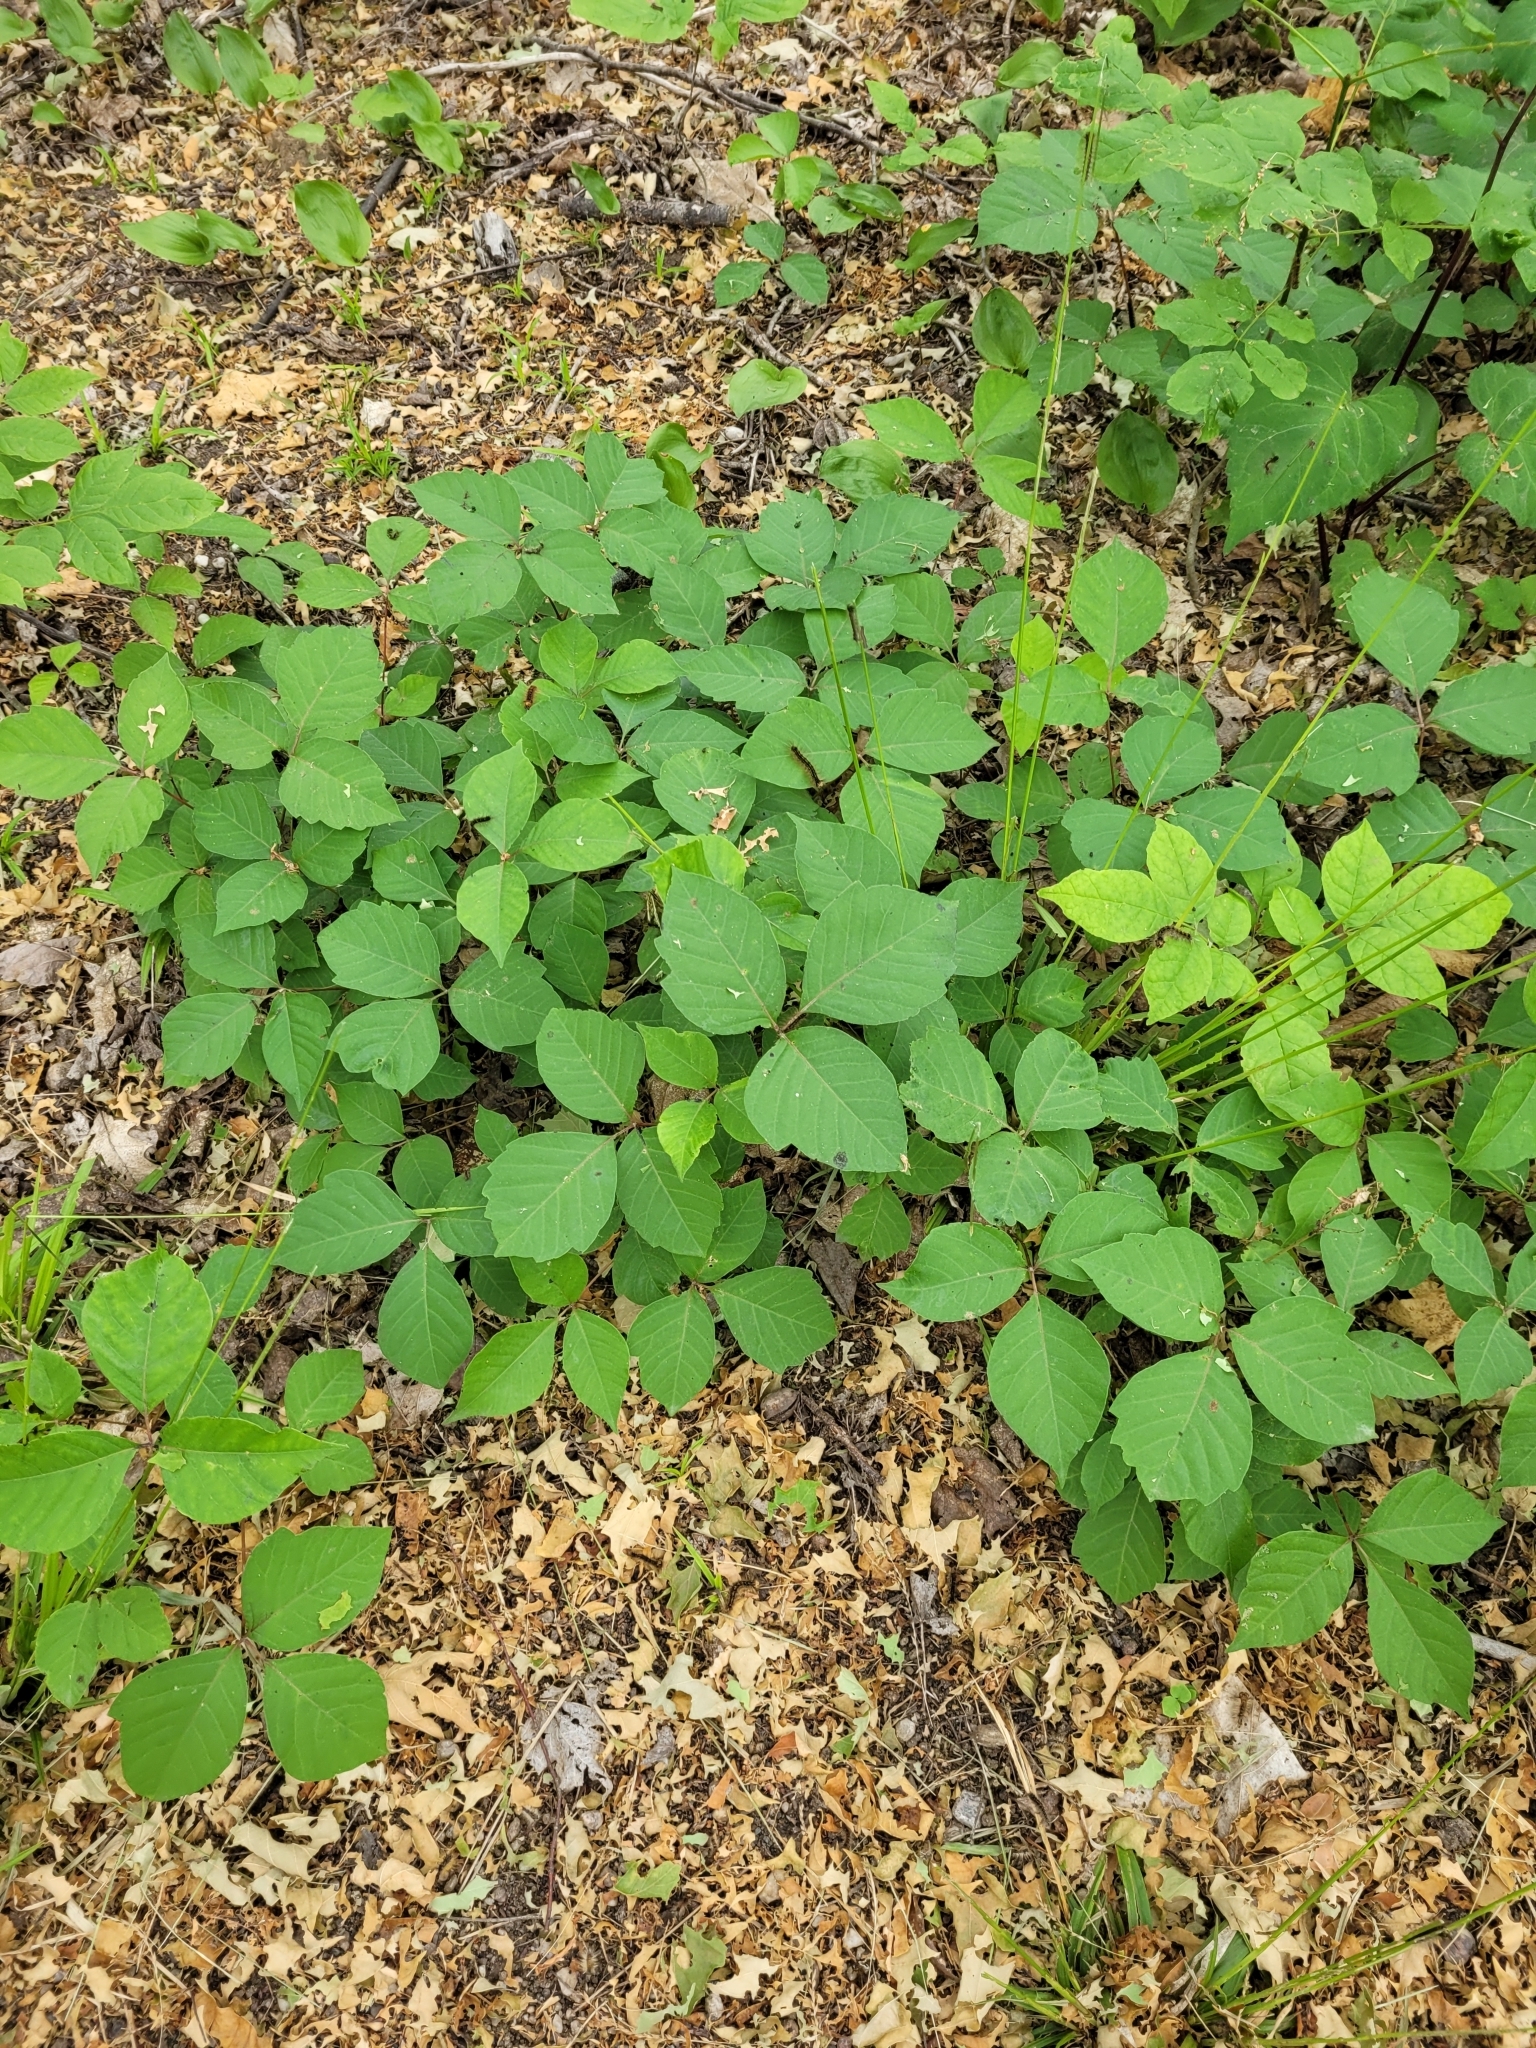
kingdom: Plantae
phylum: Tracheophyta
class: Magnoliopsida
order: Sapindales
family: Anacardiaceae
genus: Toxicodendron
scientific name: Toxicodendron rydbergii
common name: Rydberg's poison-ivy
